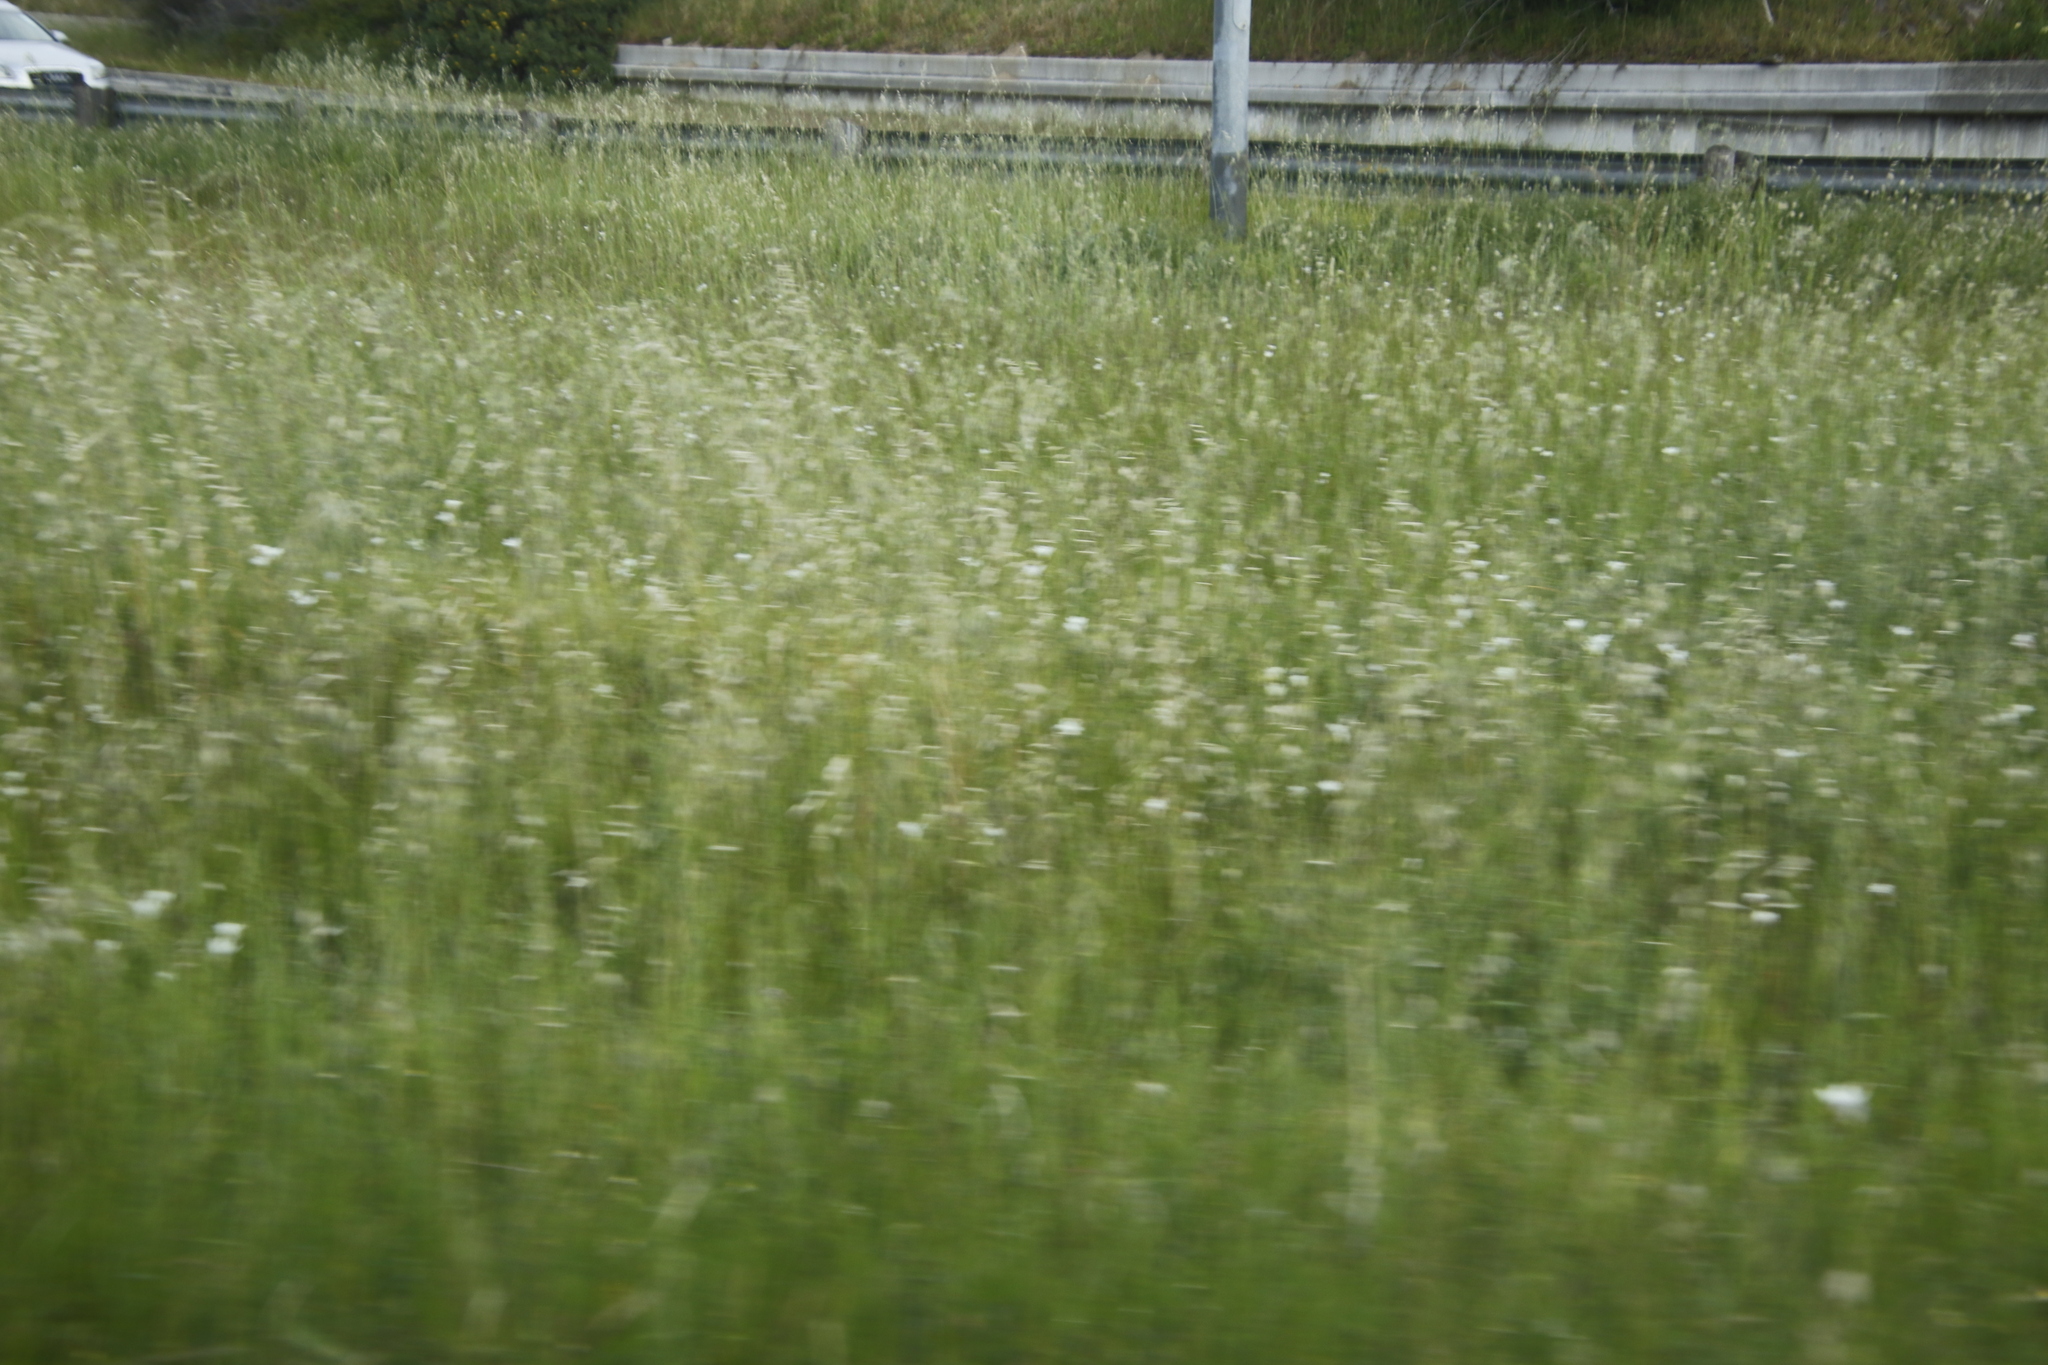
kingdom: Plantae
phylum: Tracheophyta
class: Liliopsida
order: Asparagales
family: Iridaceae
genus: Sparaxis
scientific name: Sparaxis bulbifera
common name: Harlequin-flower
